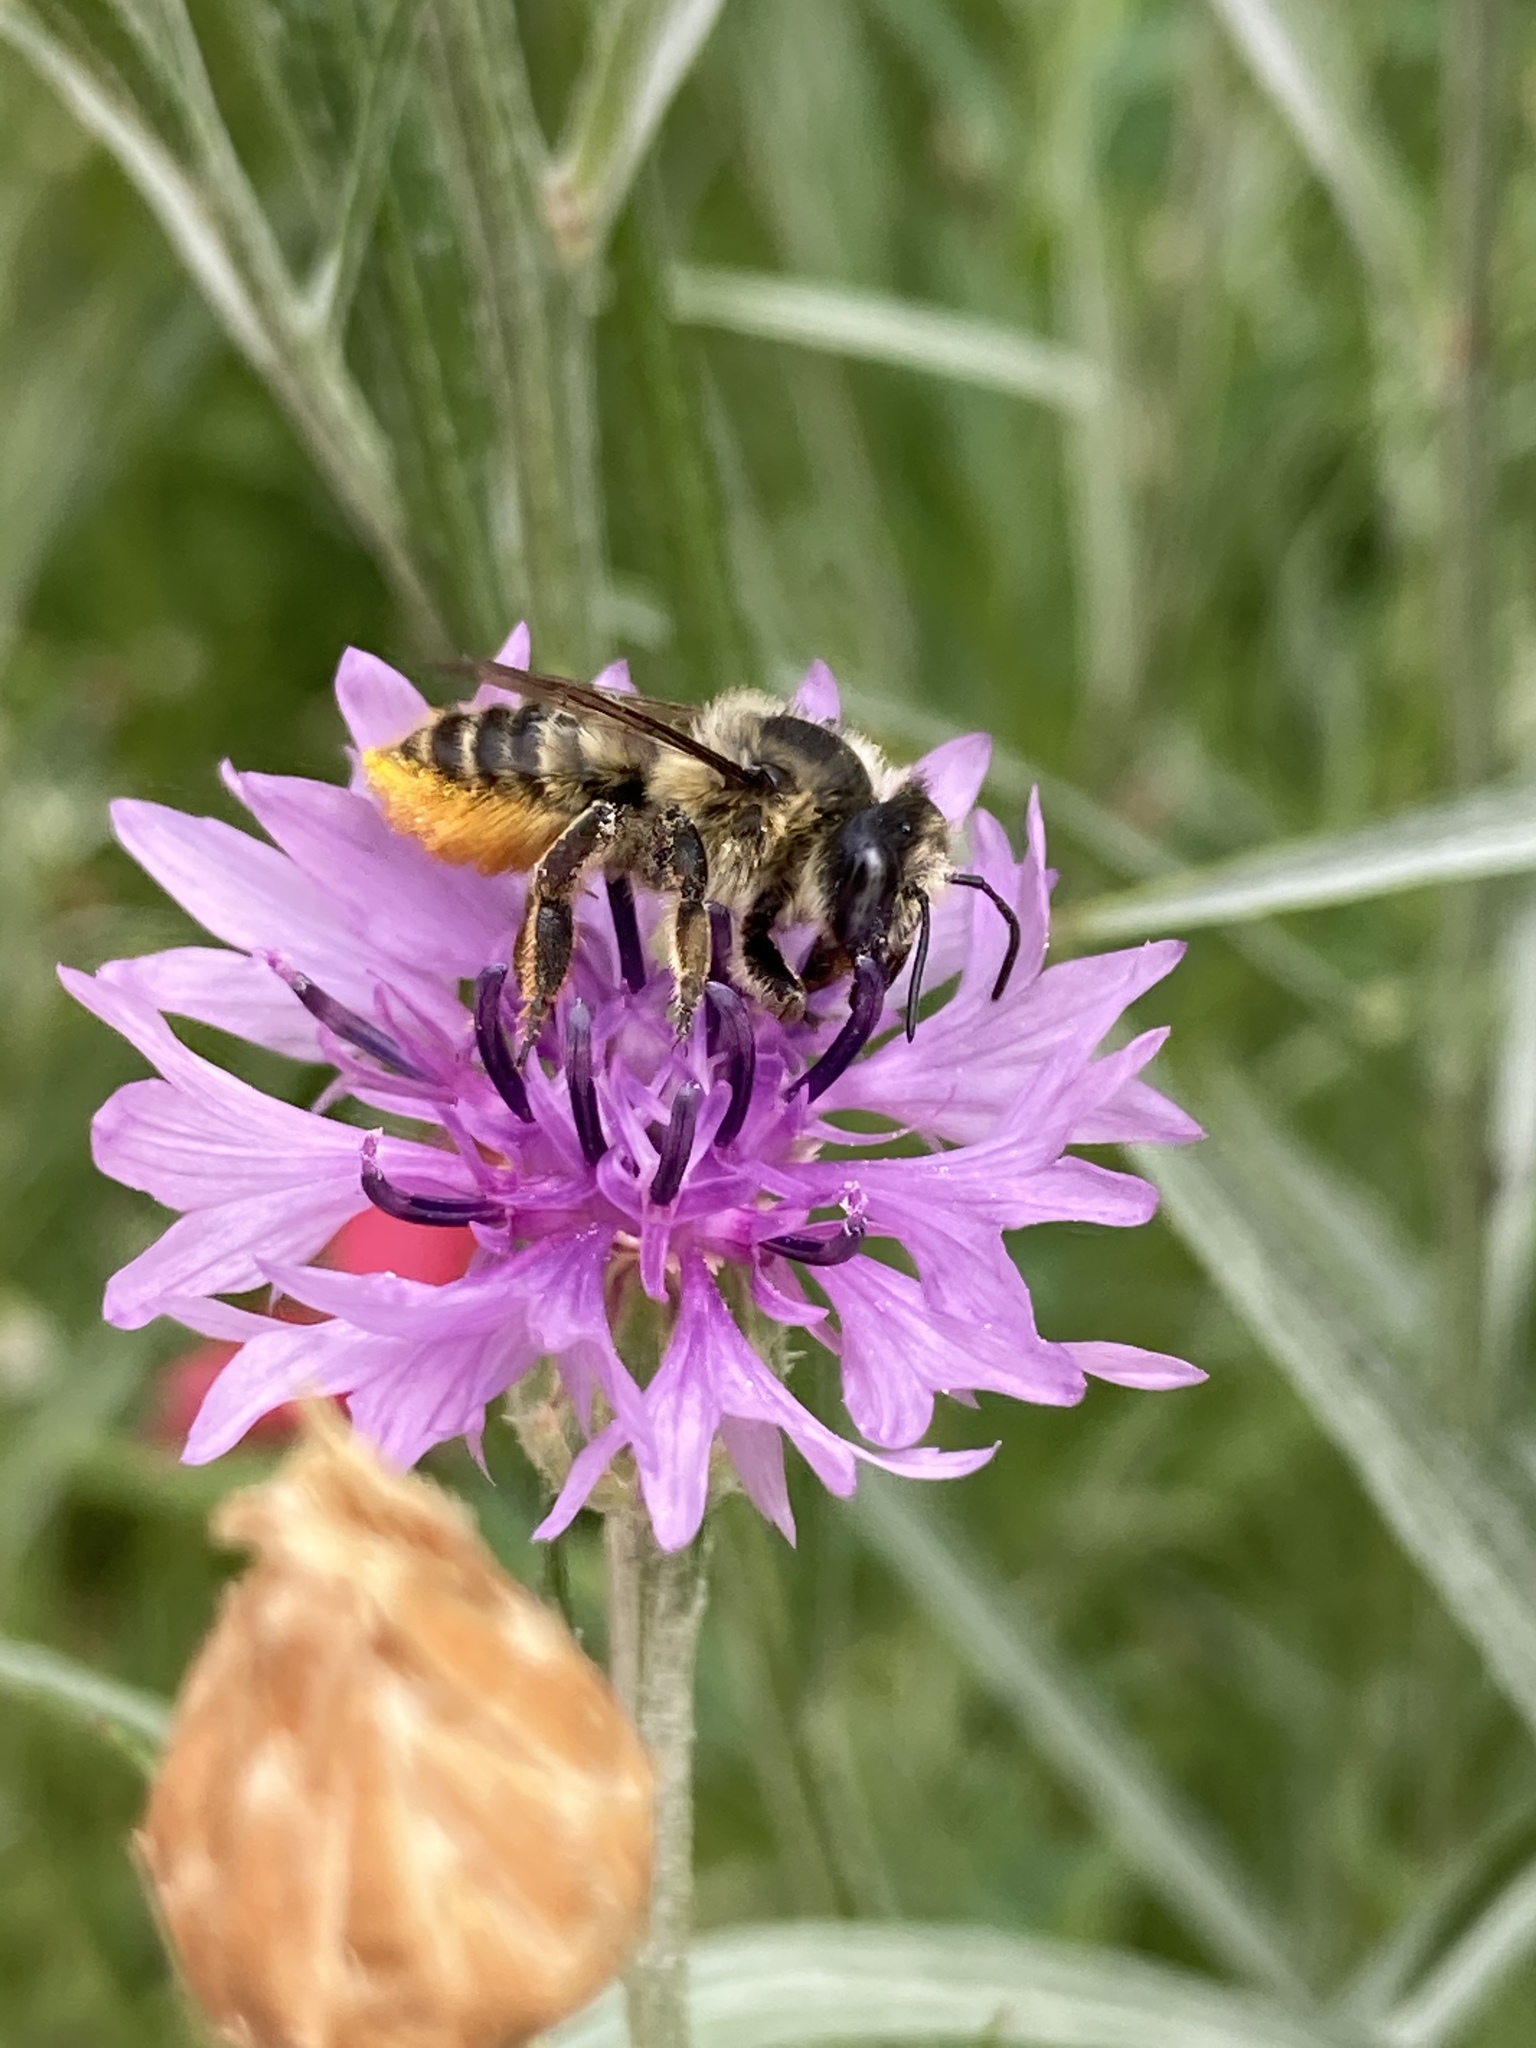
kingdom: Animalia
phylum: Arthropoda
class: Insecta
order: Hymenoptera
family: Megachilidae
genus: Xanthosarus
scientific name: Xanthosarus
